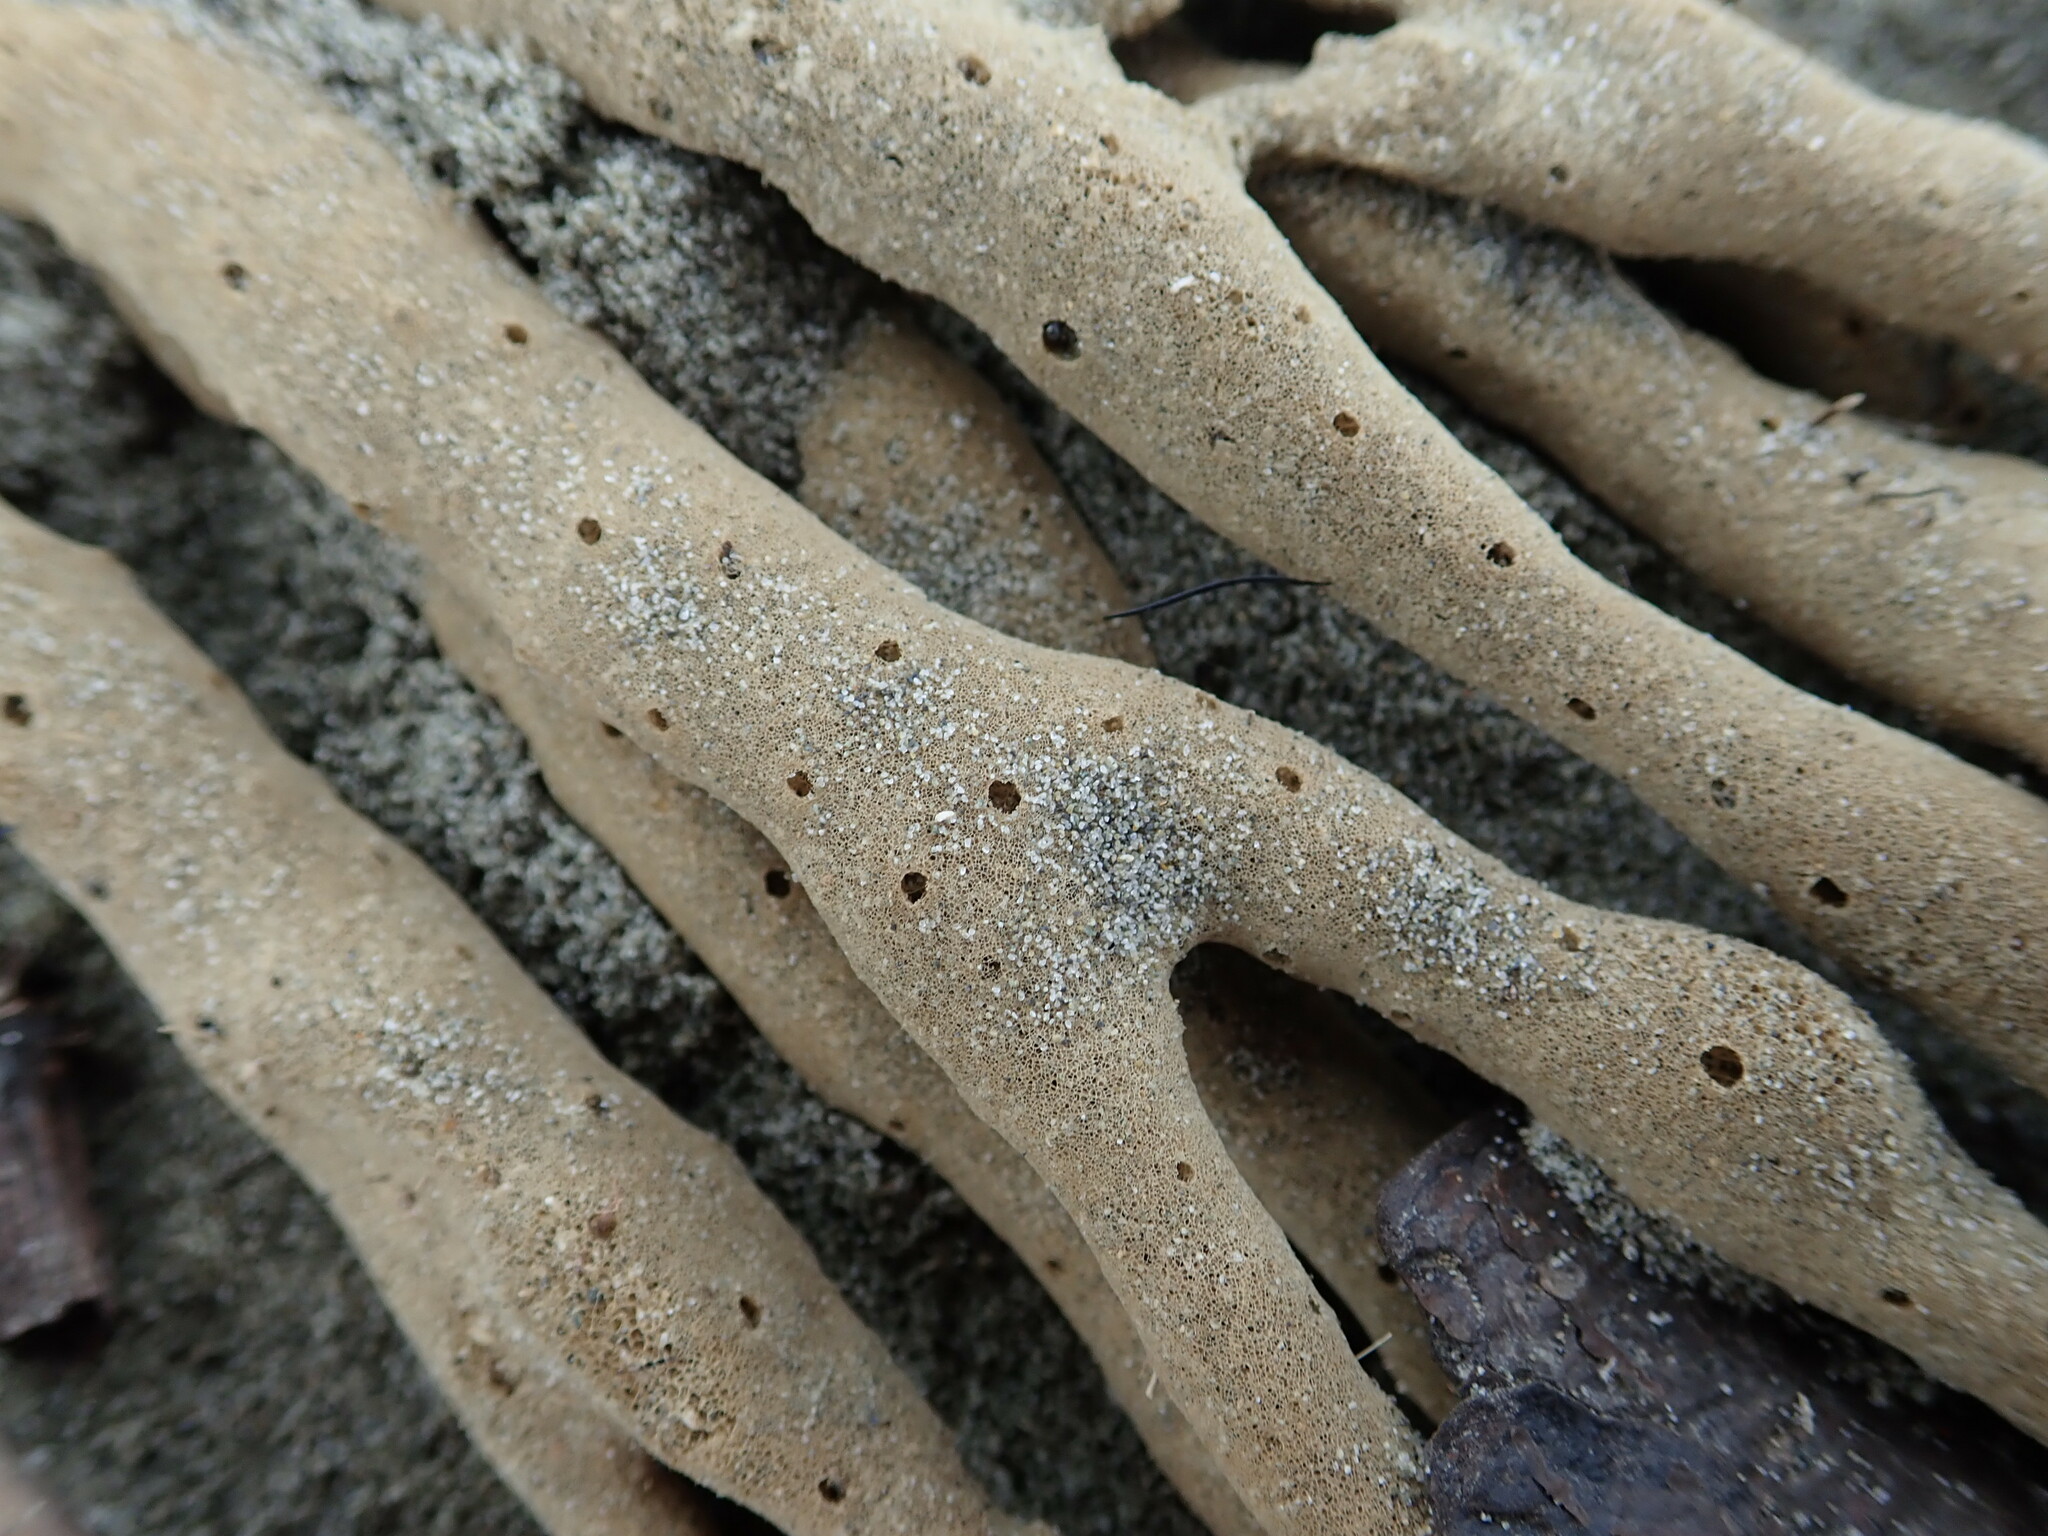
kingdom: Animalia
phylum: Porifera
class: Demospongiae
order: Haplosclerida
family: Callyspongiidae
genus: Callyspongia
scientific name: Callyspongia nuda
